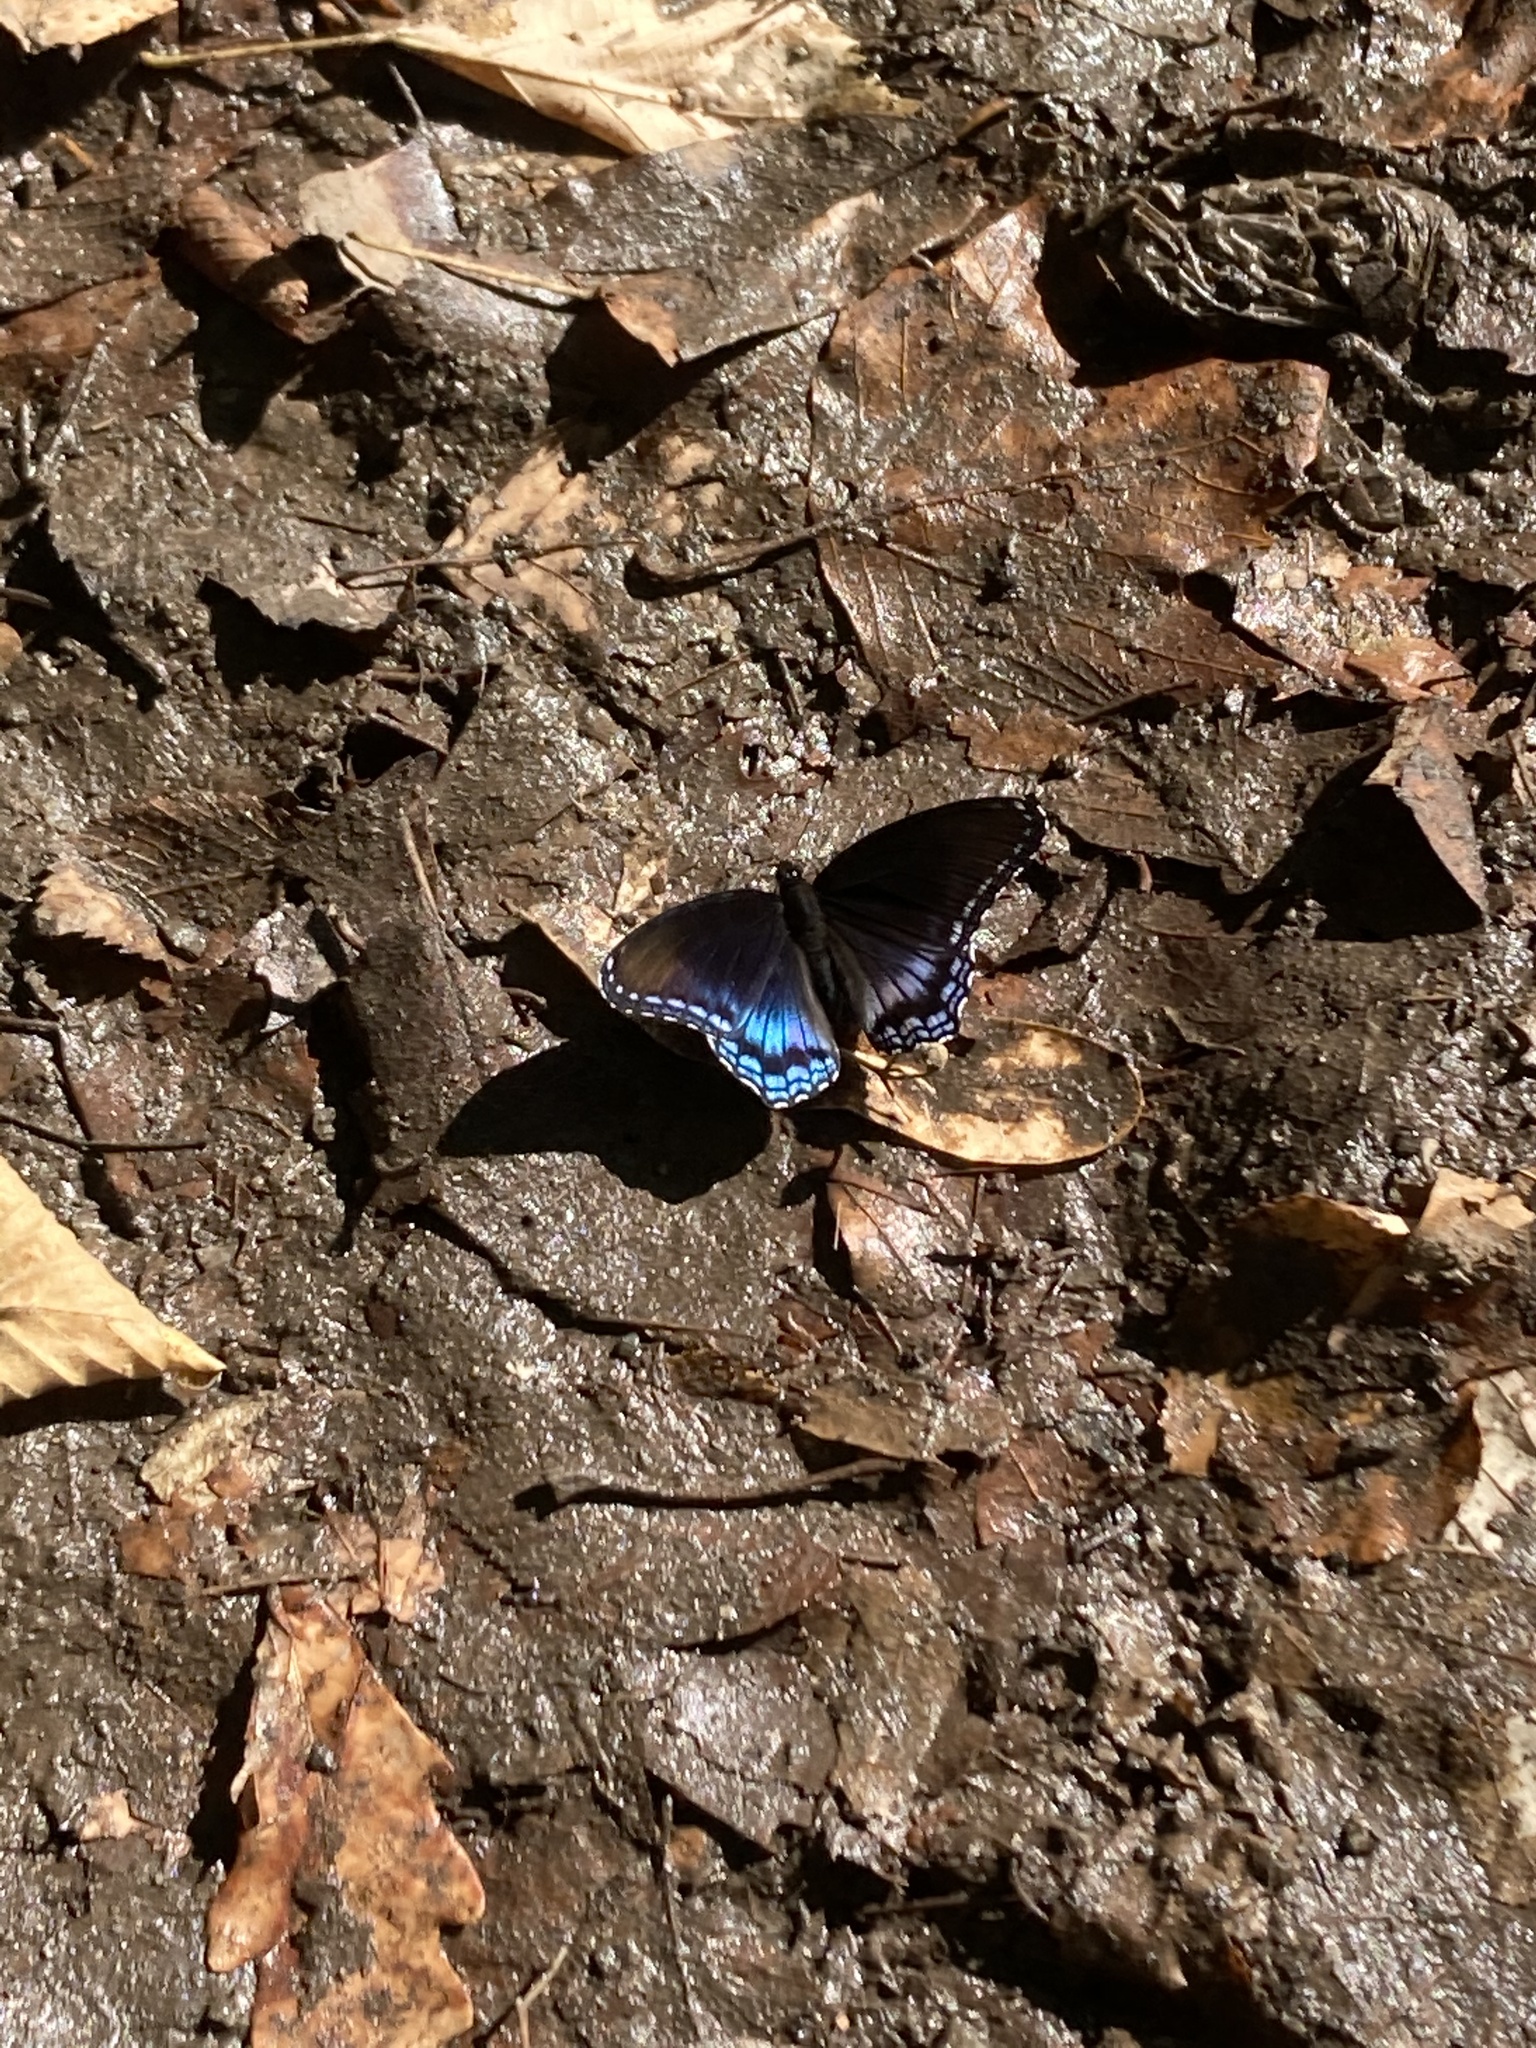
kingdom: Animalia
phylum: Arthropoda
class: Insecta
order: Lepidoptera
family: Nymphalidae
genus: Limenitis
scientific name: Limenitis arthemis
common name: Red-spotted admiral
